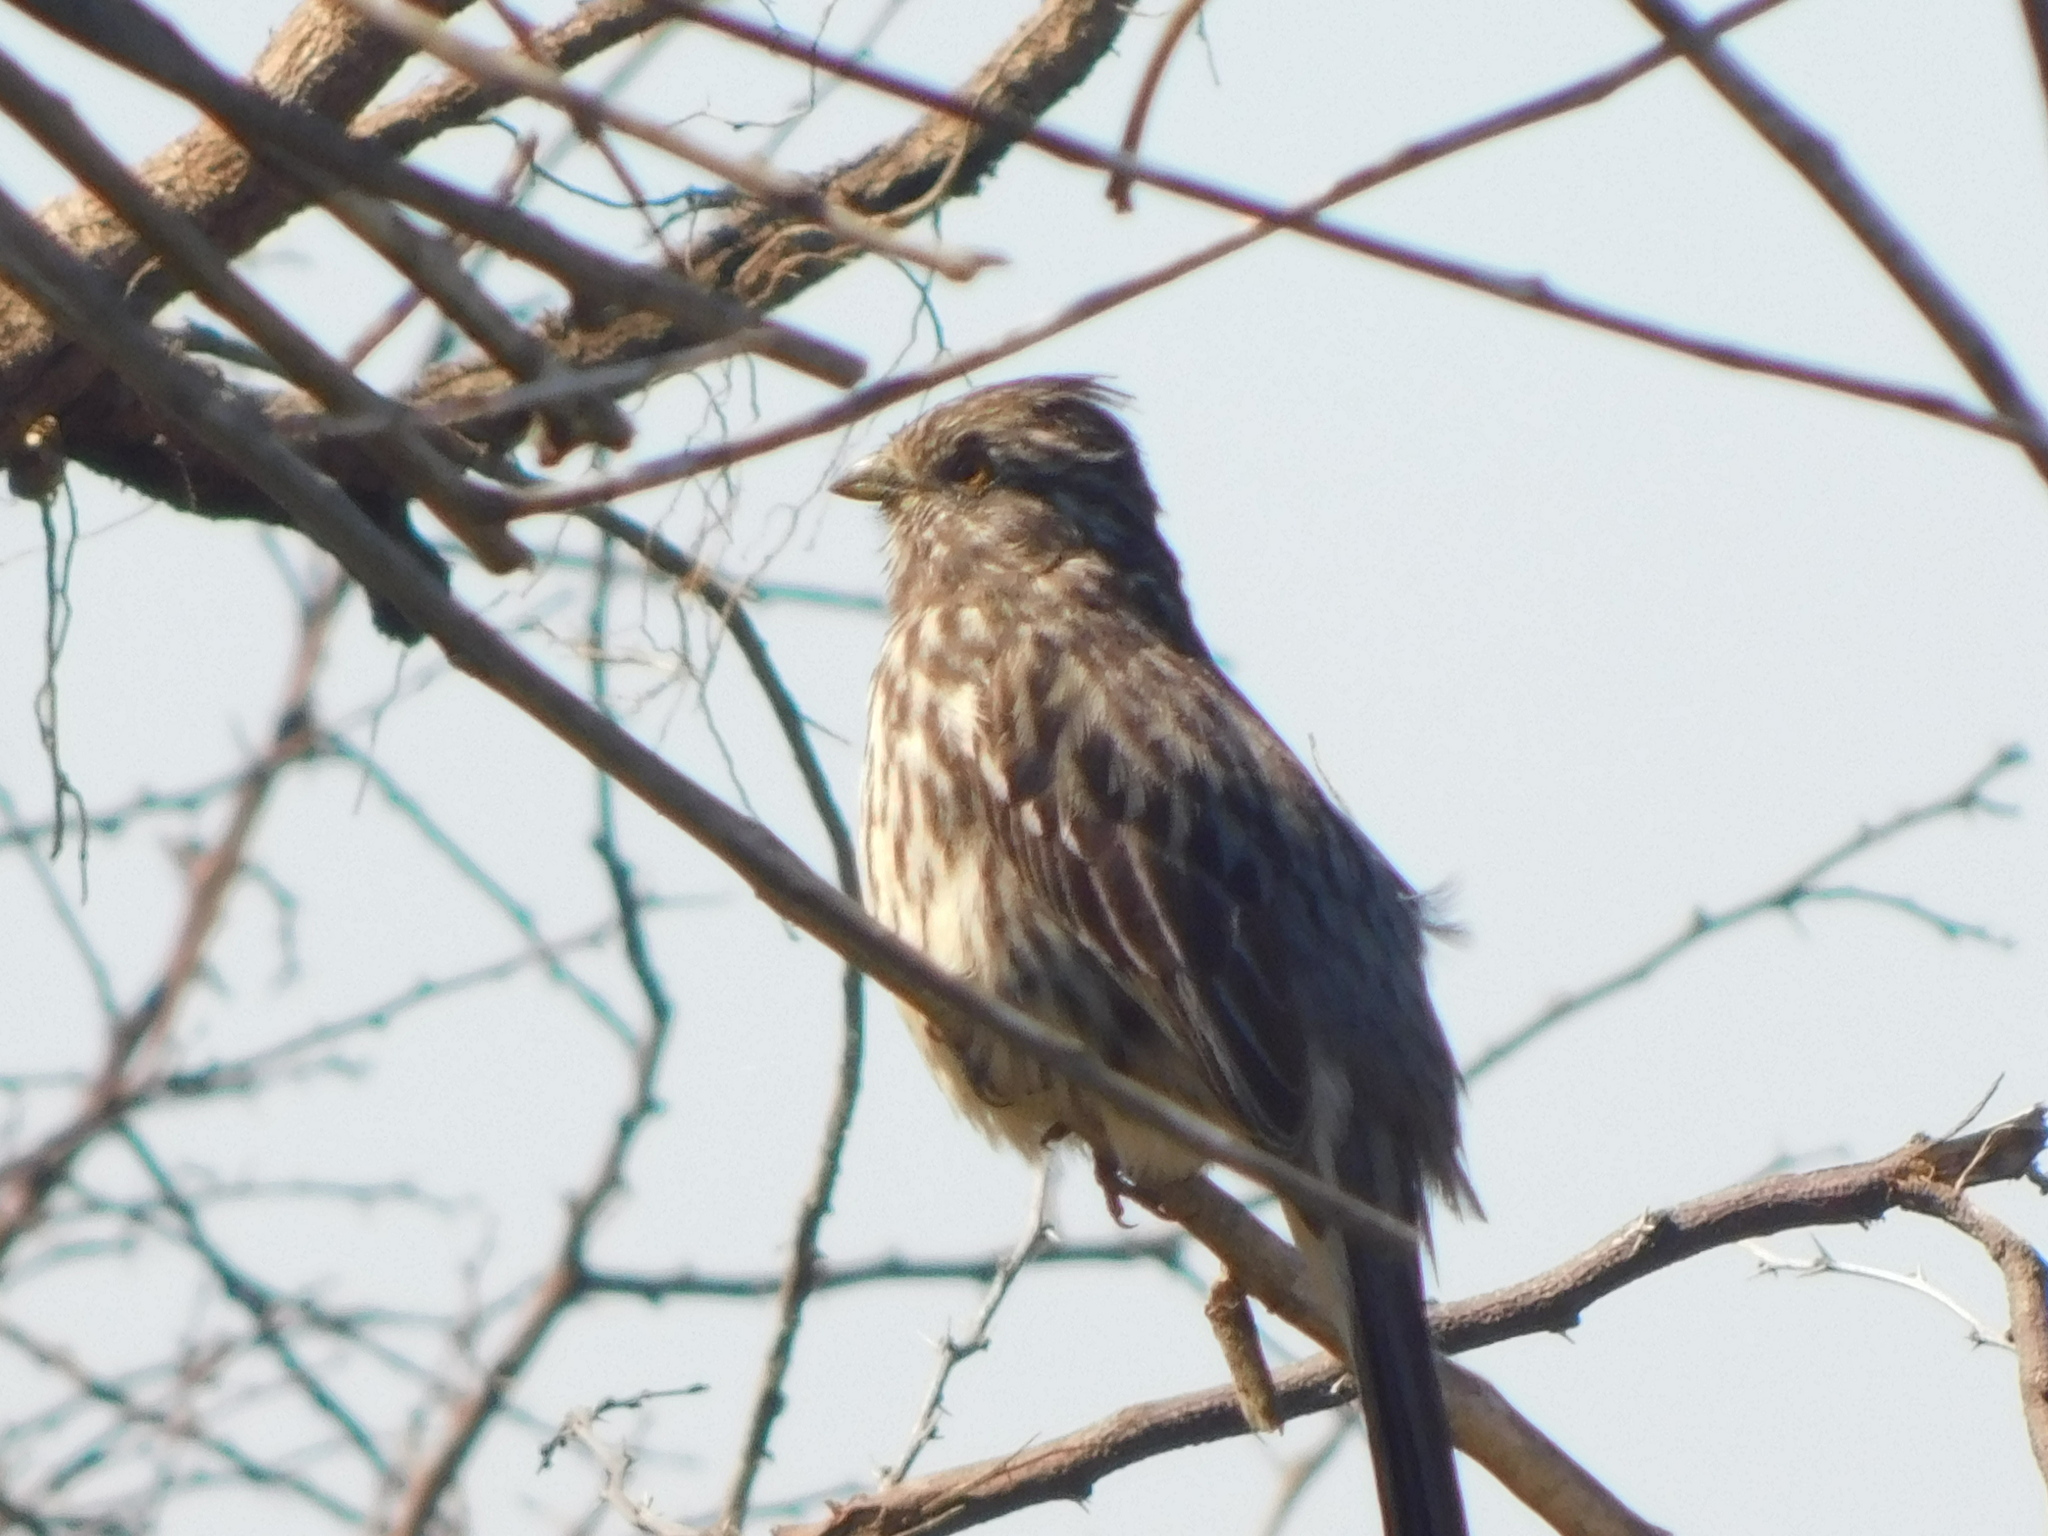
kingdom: Animalia
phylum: Chordata
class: Aves
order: Passeriformes
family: Cotingidae
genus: Phytotoma
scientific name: Phytotoma rutila
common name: White-tipped plantcutter
